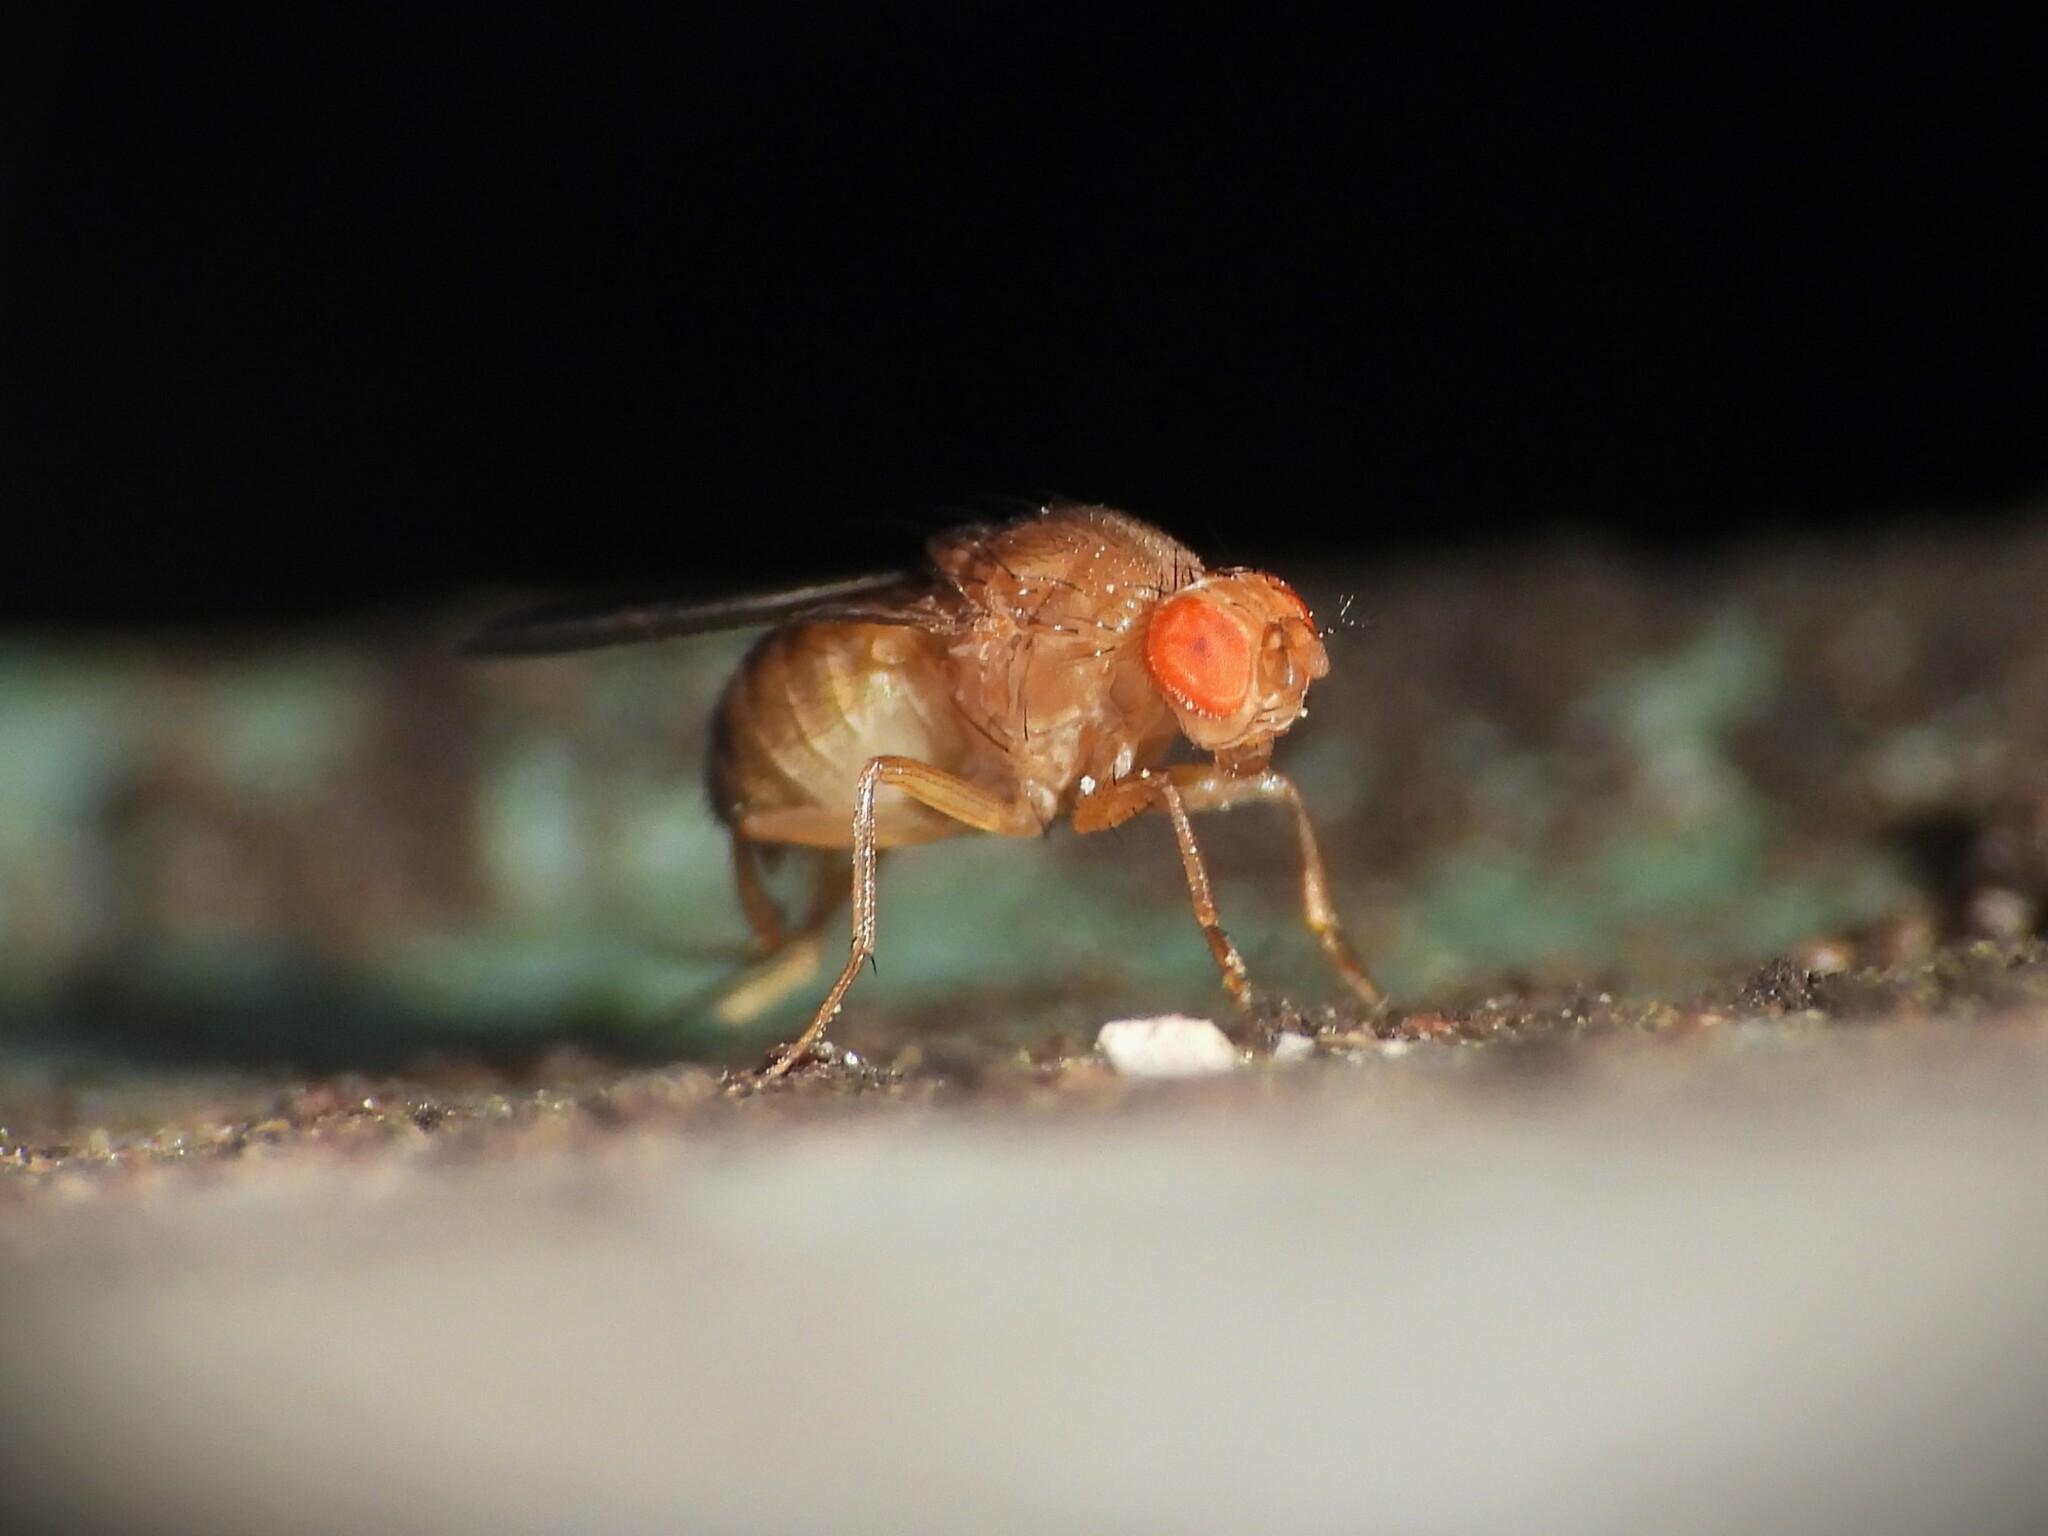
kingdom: Animalia
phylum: Arthropoda
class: Insecta
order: Diptera
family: Drosophilidae
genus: Drosophila
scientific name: Drosophila immigrans
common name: Pomace fly
